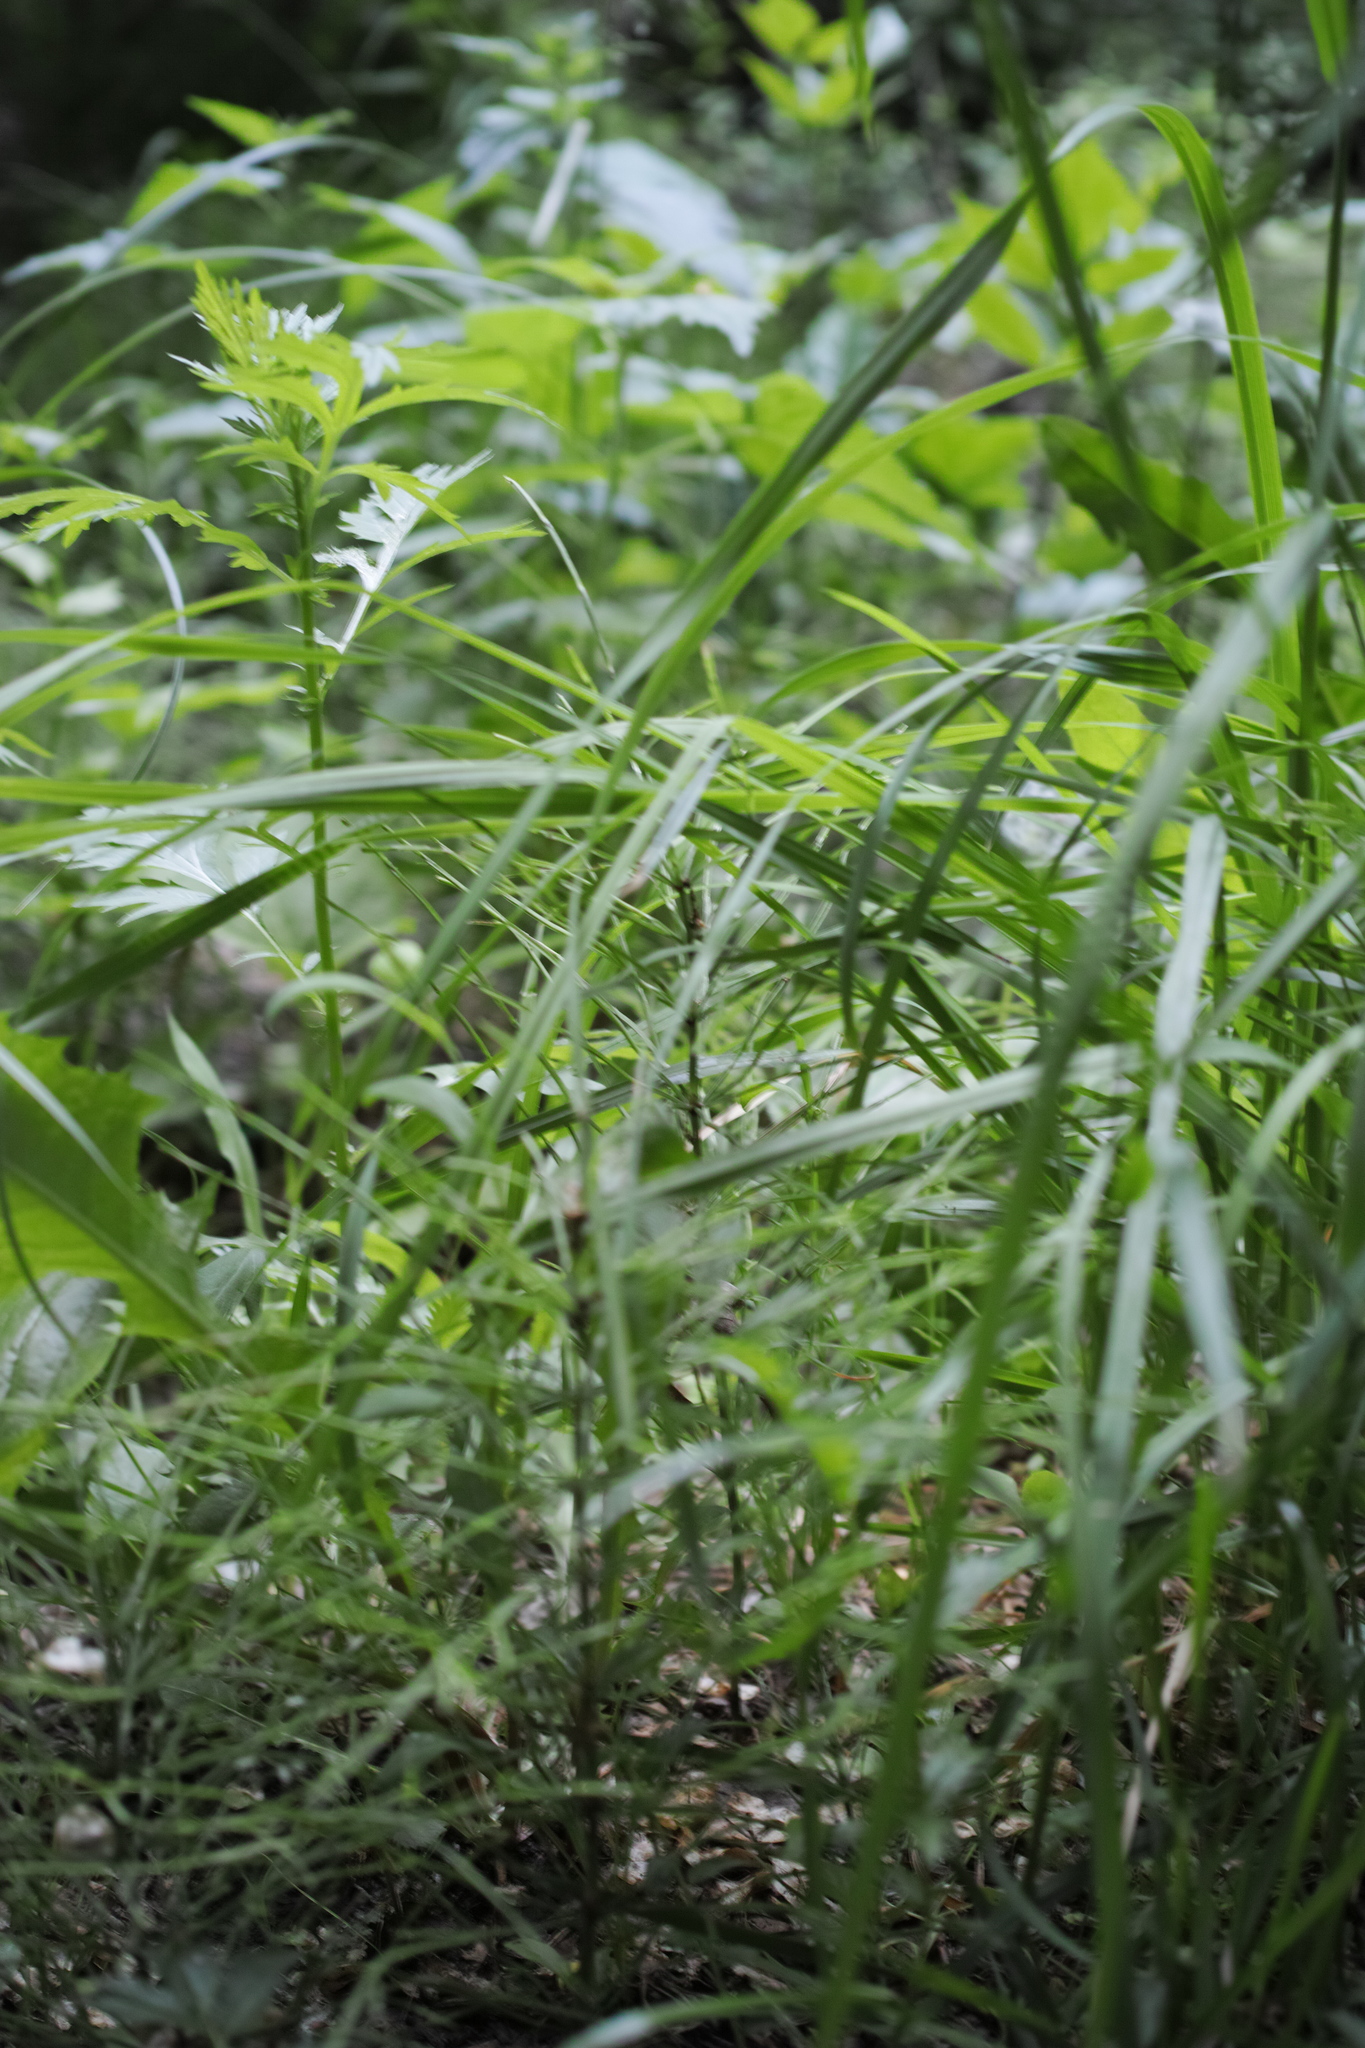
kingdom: Plantae
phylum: Tracheophyta
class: Polypodiopsida
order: Equisetales
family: Equisetaceae
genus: Equisetum
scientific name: Equisetum arvense
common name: Field horsetail
